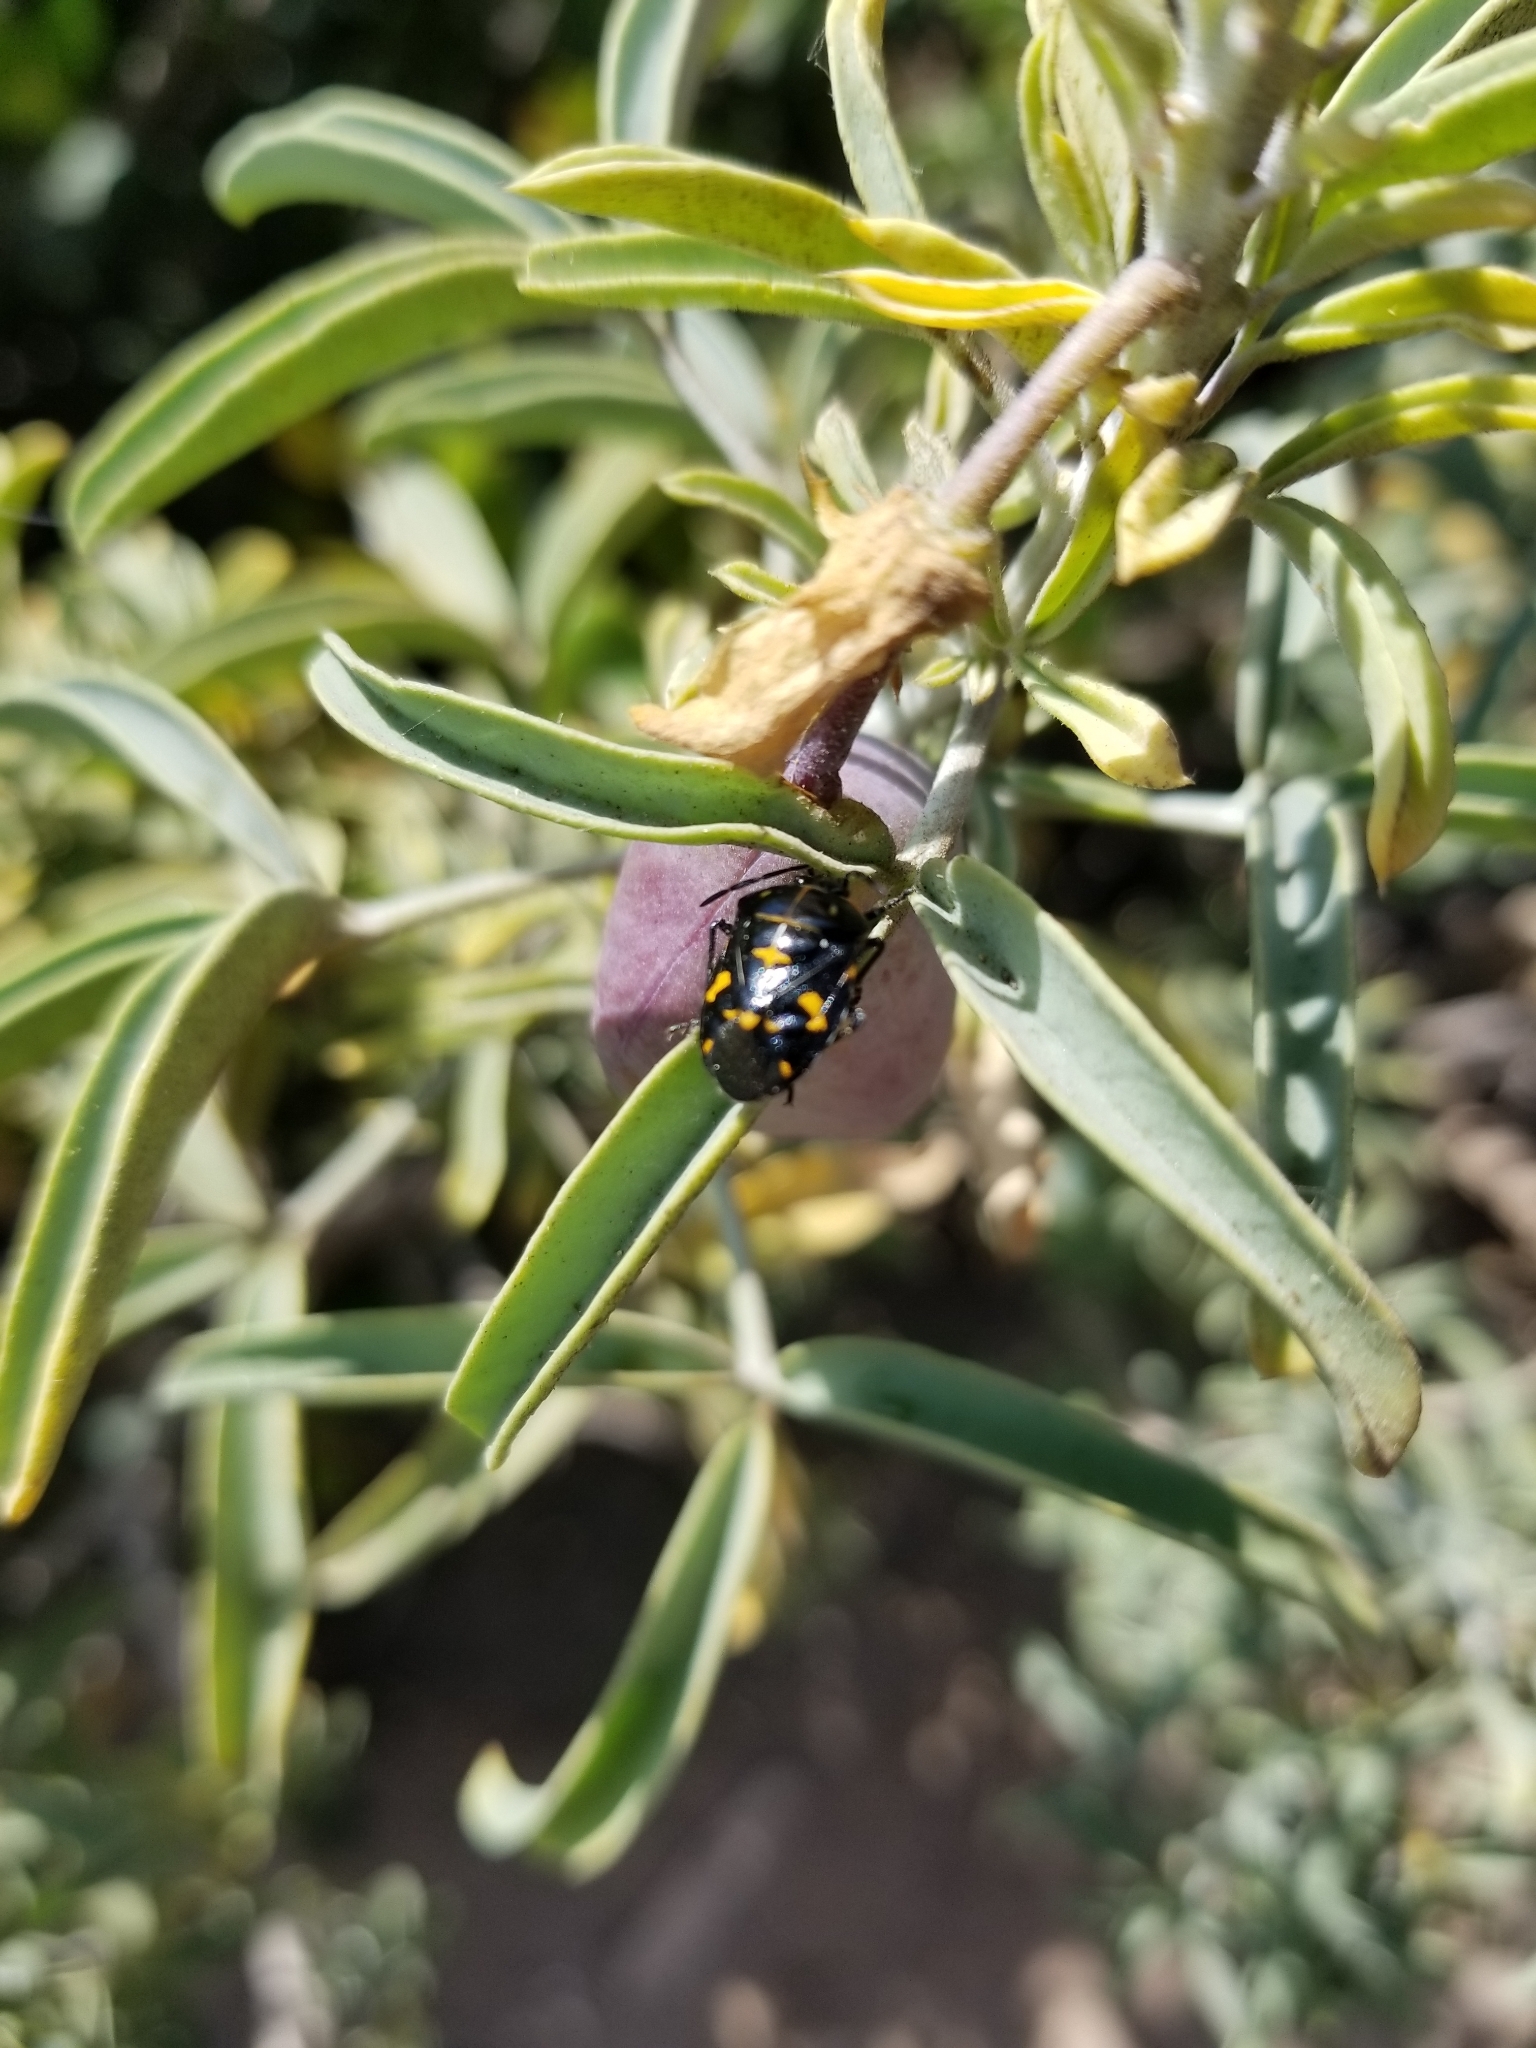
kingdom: Animalia
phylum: Arthropoda
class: Insecta
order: Hemiptera
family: Pentatomidae
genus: Murgantia
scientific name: Murgantia histrionica
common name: Harlequin bug
